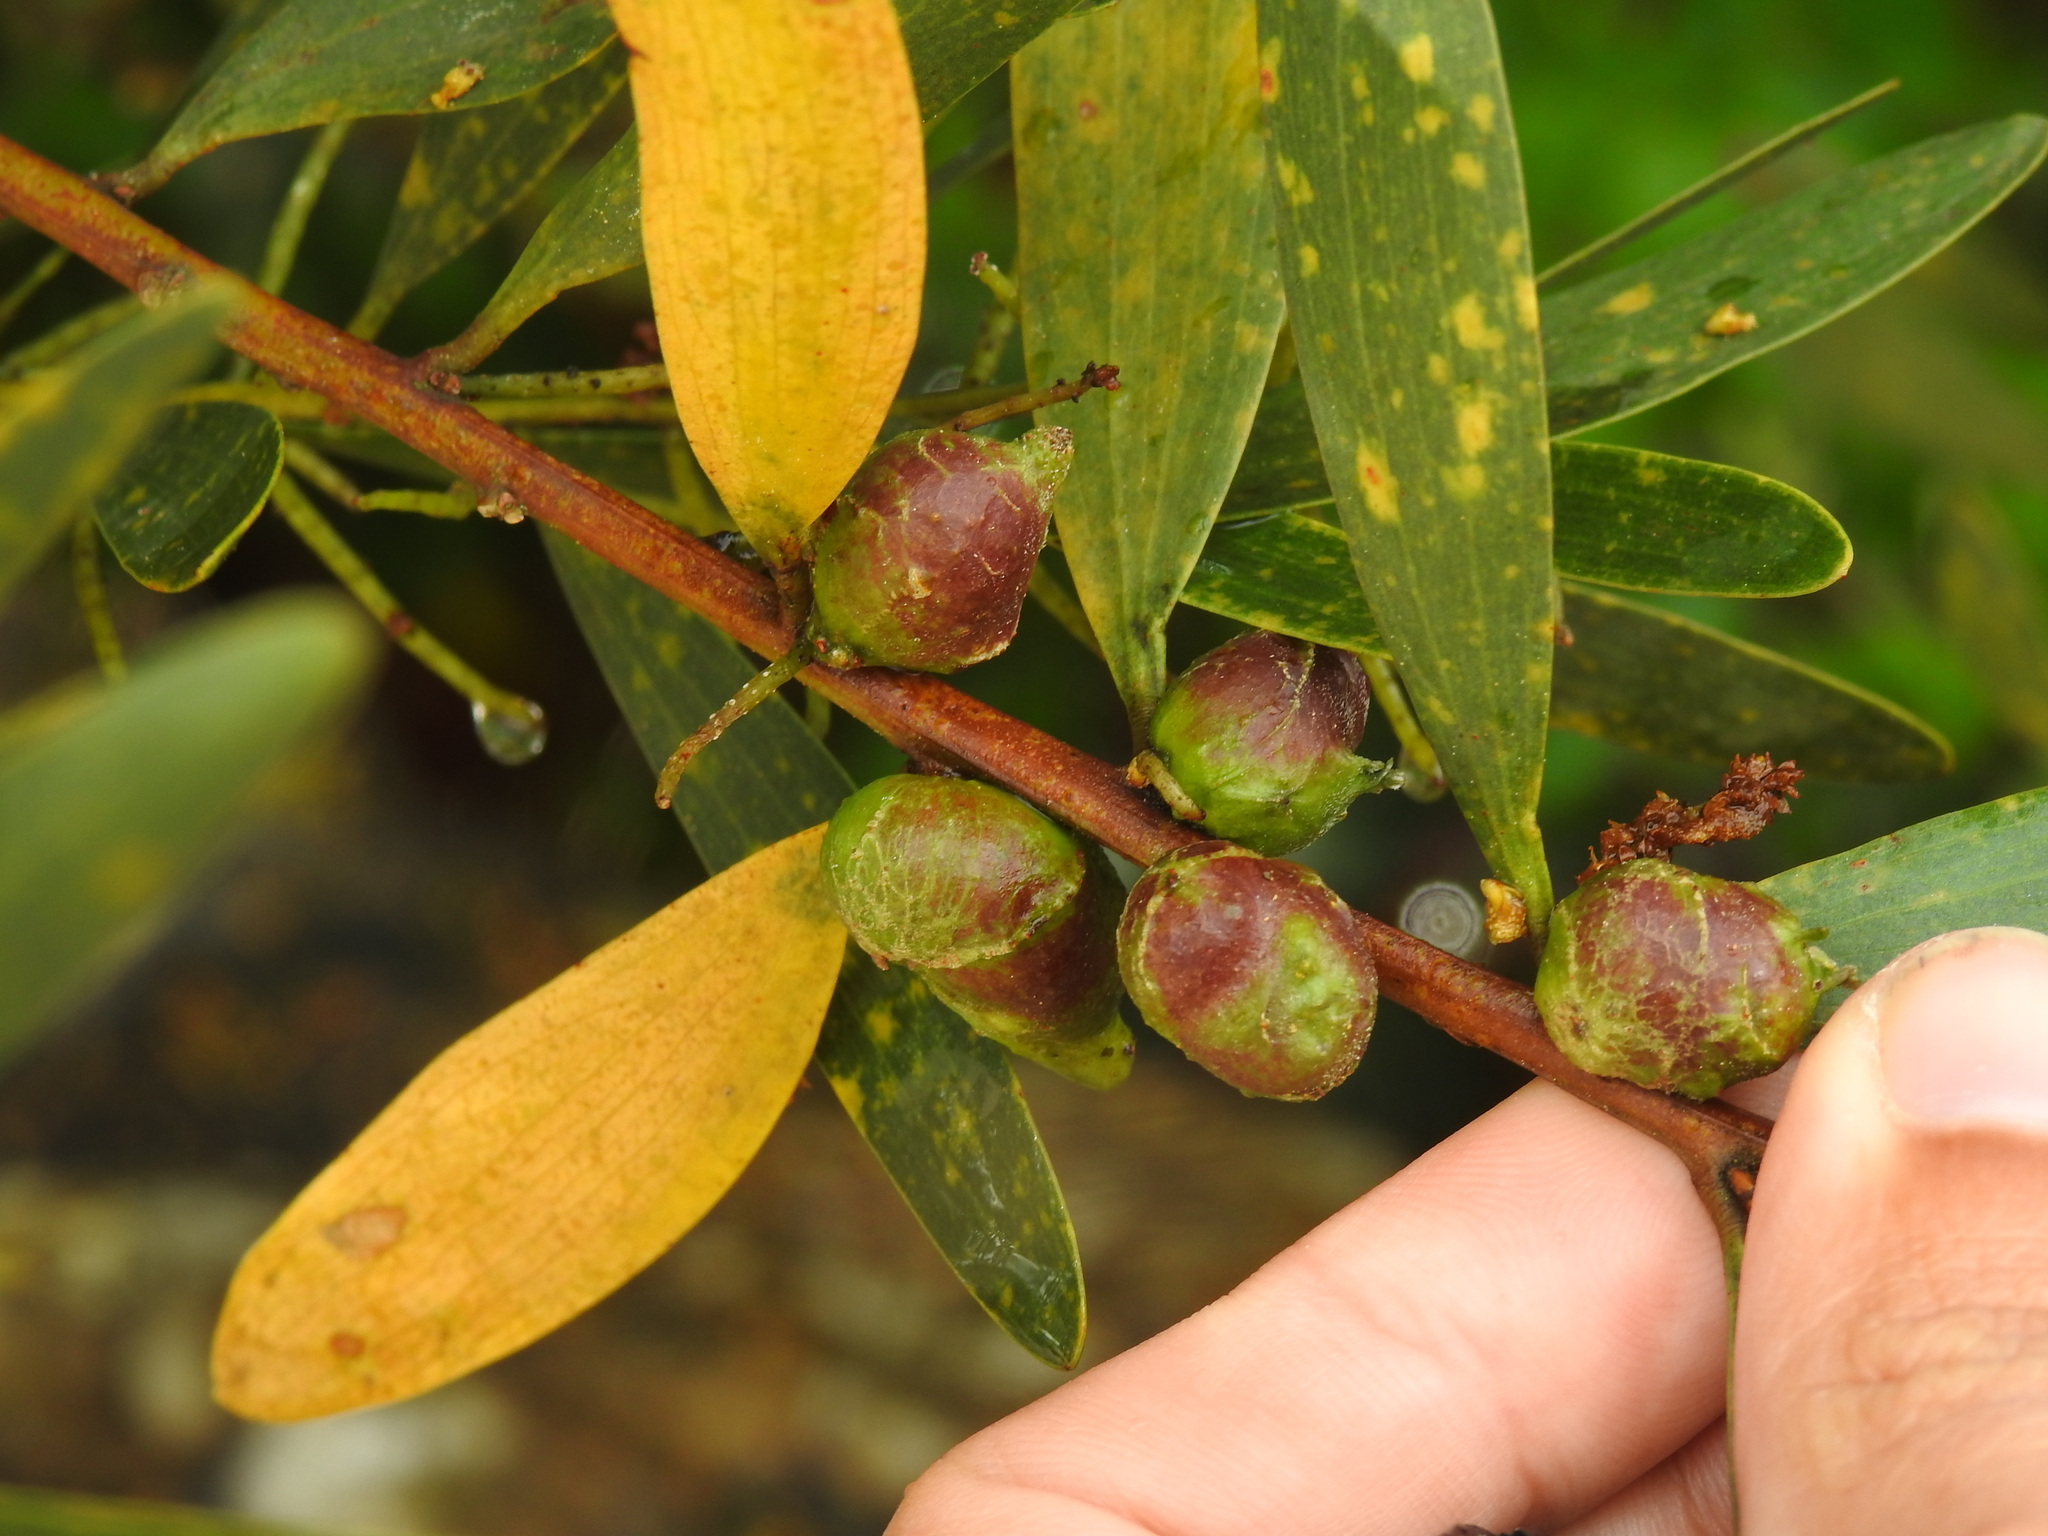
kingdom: Animalia
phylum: Arthropoda
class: Insecta
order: Hymenoptera
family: Pteromalidae
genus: Trichilogaster
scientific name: Trichilogaster acaciaelongifoliae
